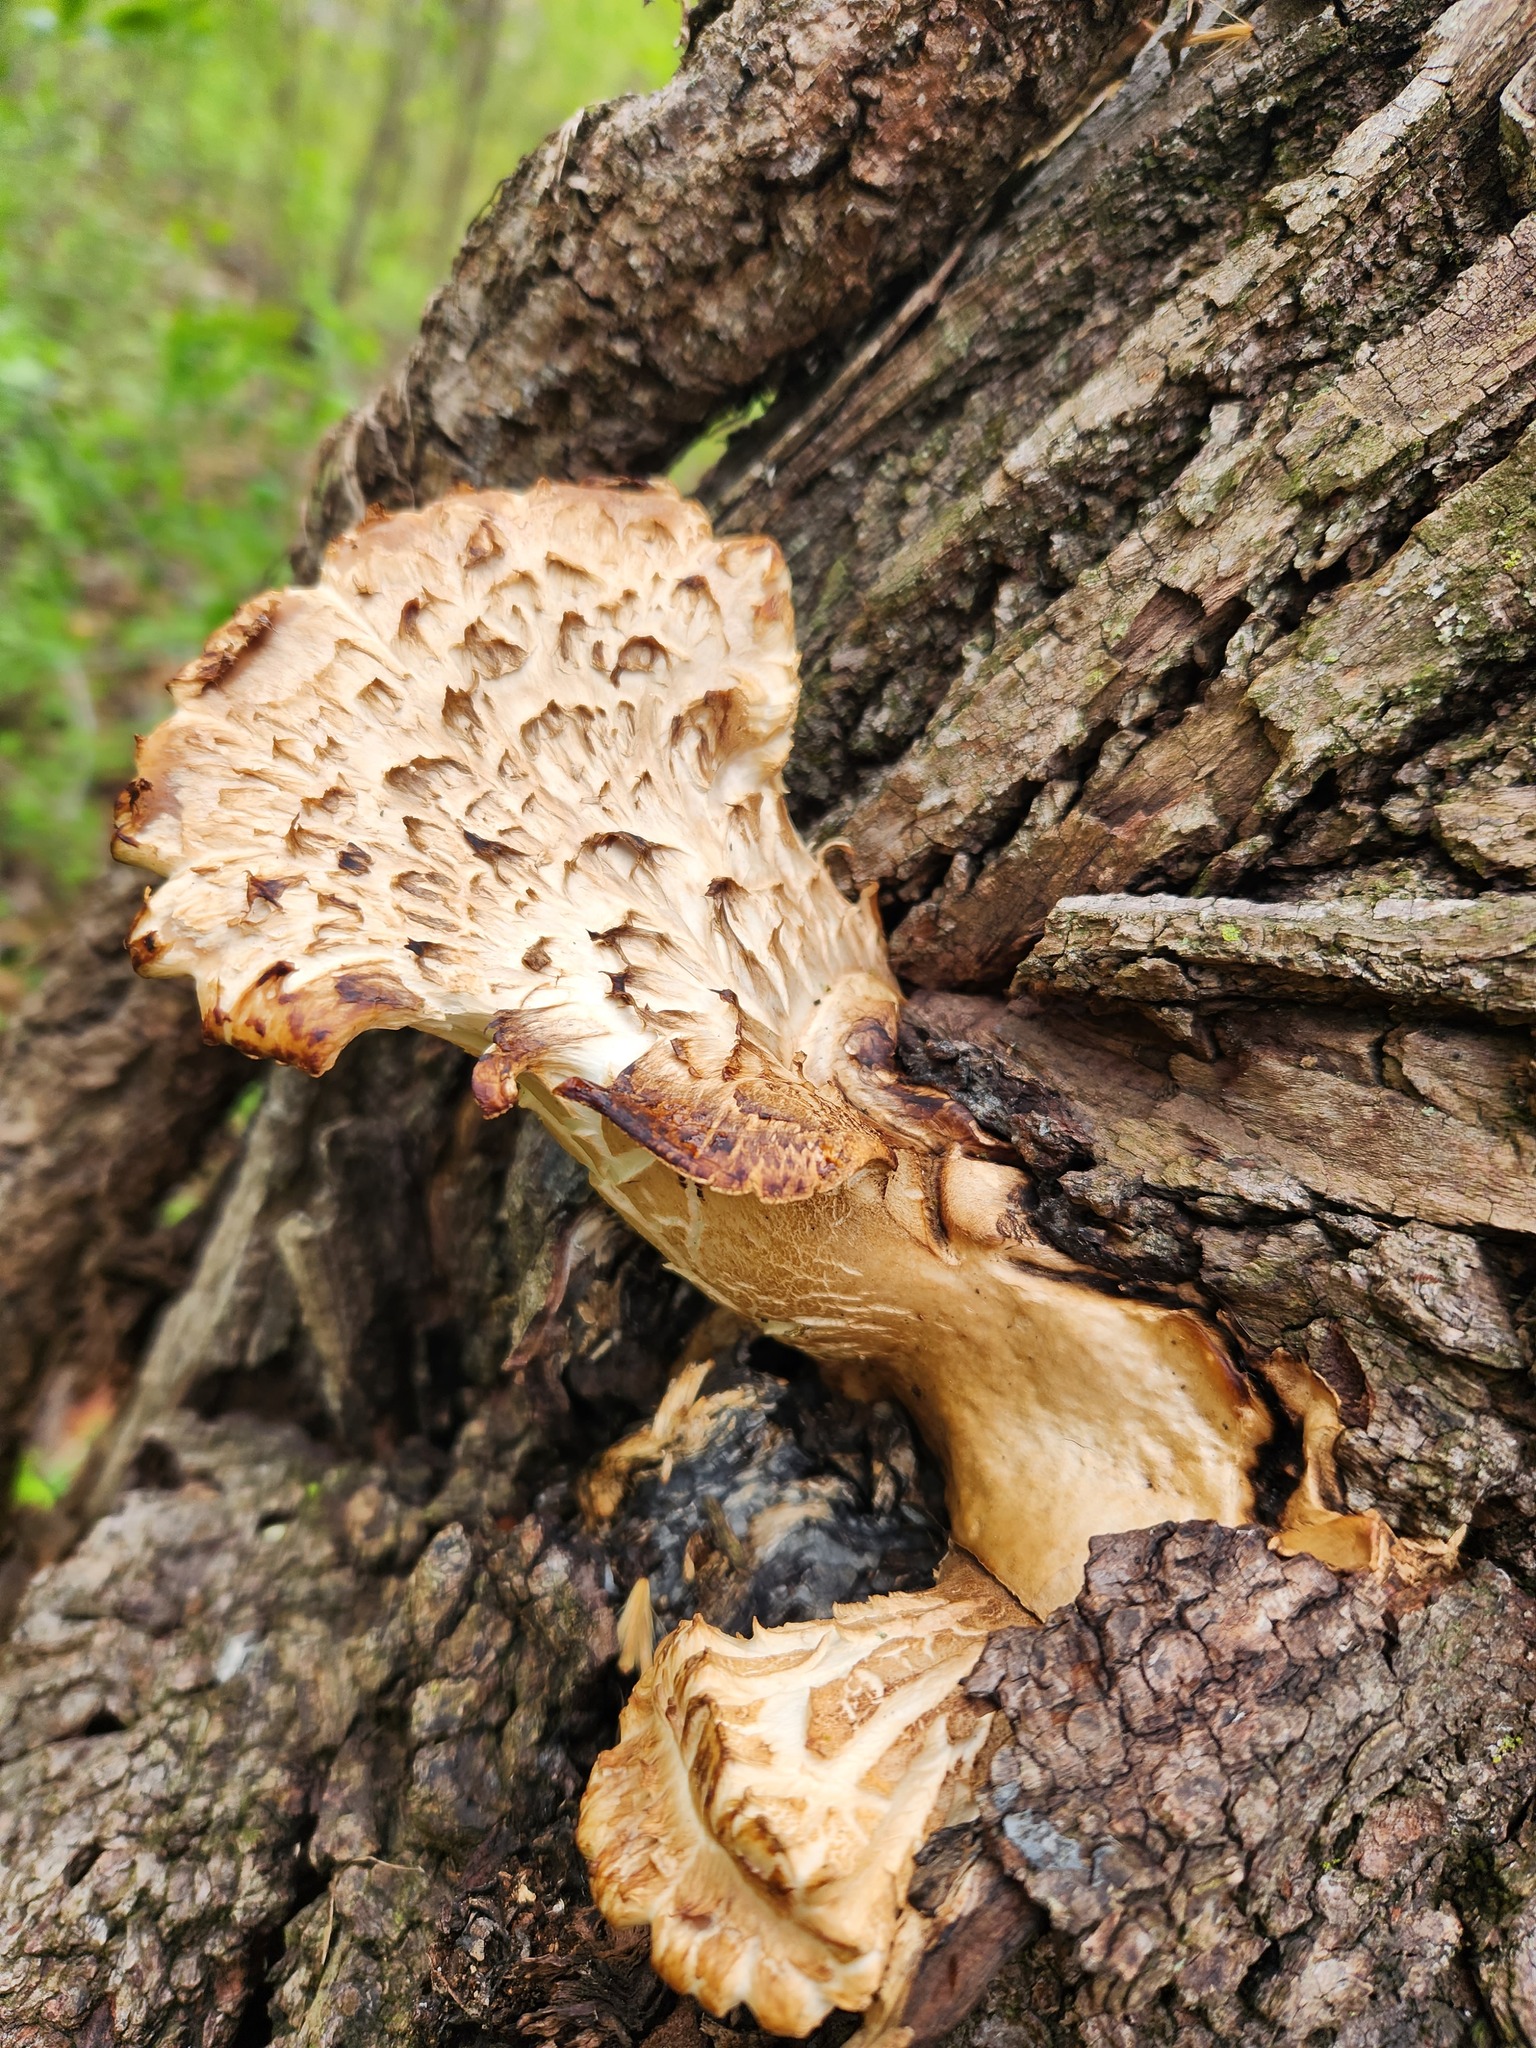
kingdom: Fungi
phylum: Basidiomycota
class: Agaricomycetes
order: Polyporales
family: Polyporaceae
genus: Cerioporus
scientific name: Cerioporus squamosus
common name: Dryad's saddle
